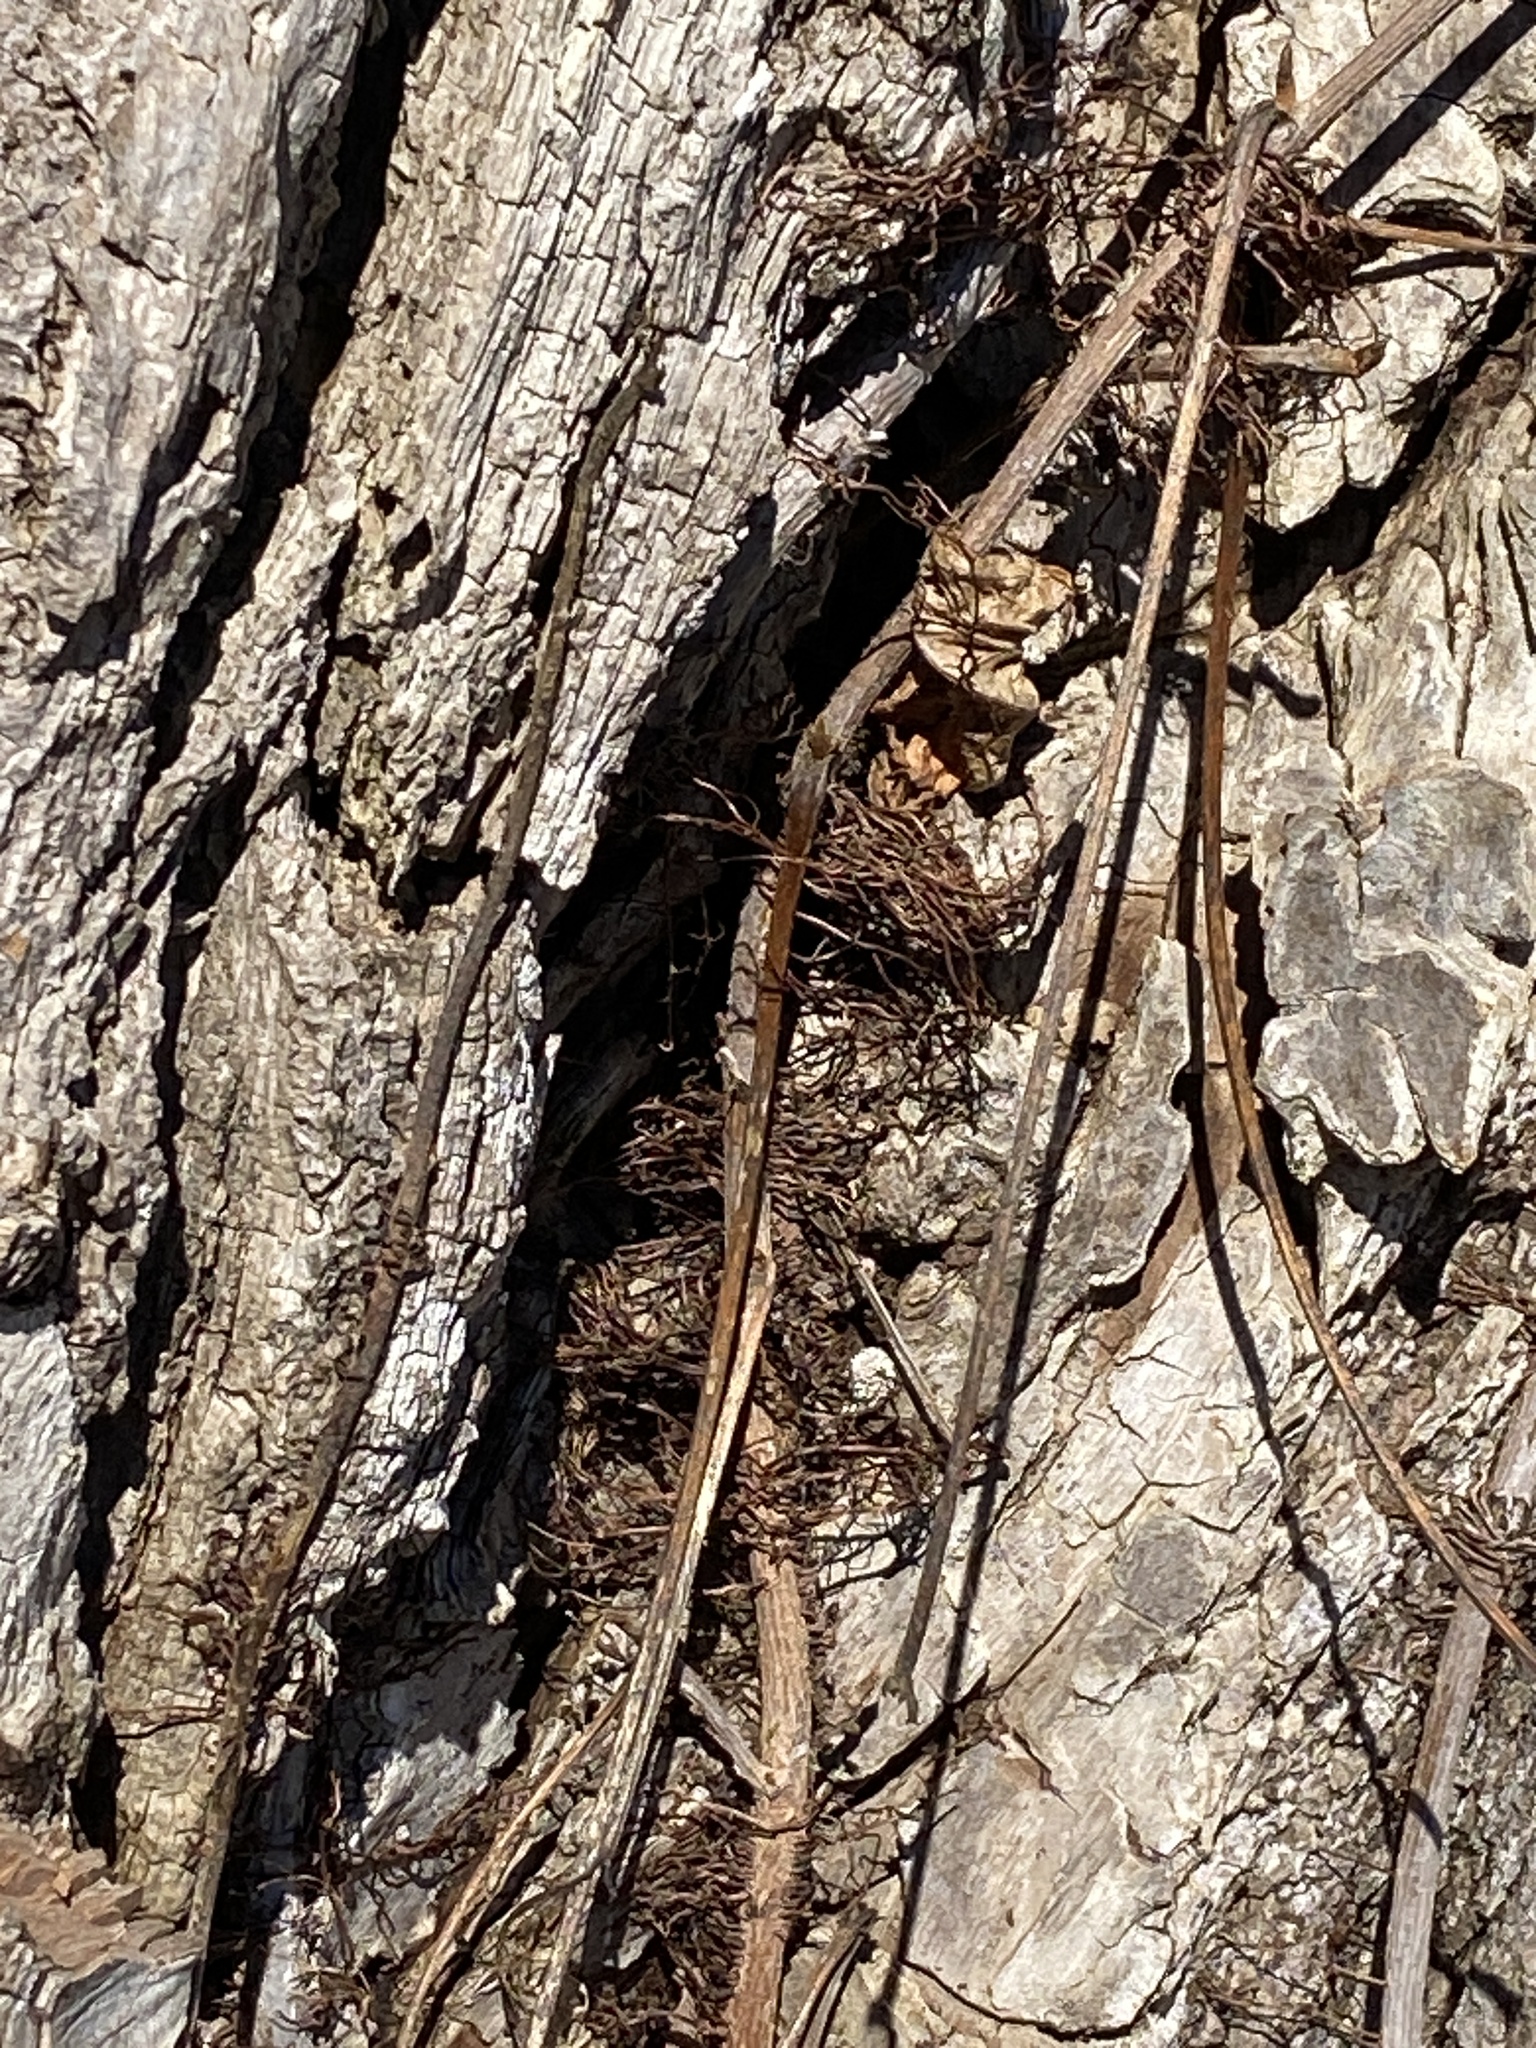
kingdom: Plantae
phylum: Tracheophyta
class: Magnoliopsida
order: Sapindales
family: Anacardiaceae
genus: Toxicodendron
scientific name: Toxicodendron radicans
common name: Poison ivy
